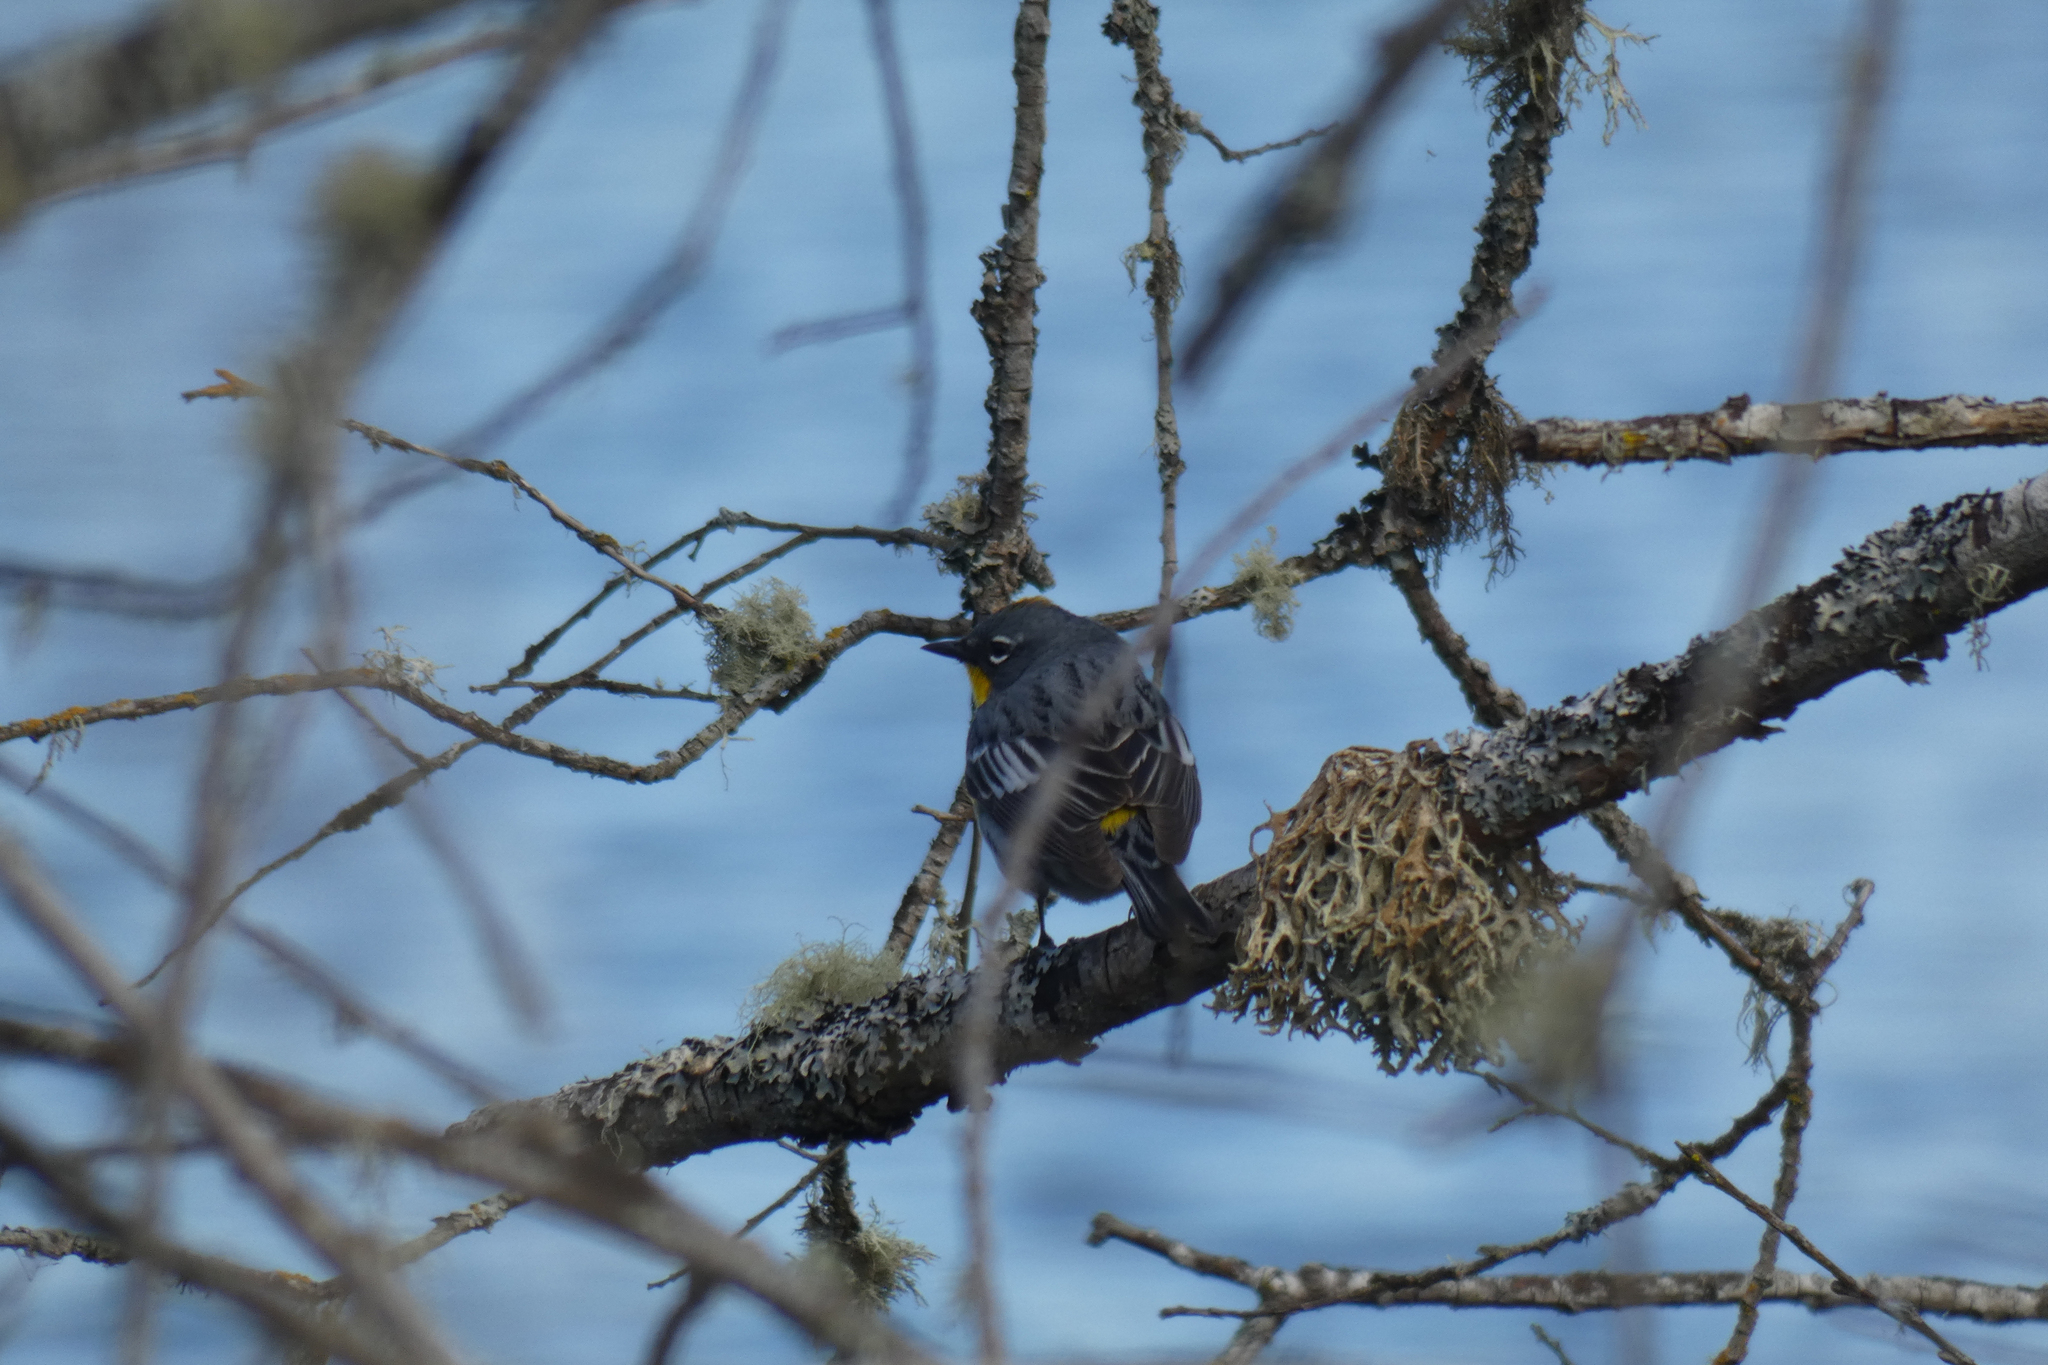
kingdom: Animalia
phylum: Chordata
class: Aves
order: Passeriformes
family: Parulidae
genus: Setophaga
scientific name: Setophaga coronata
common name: Myrtle warbler
